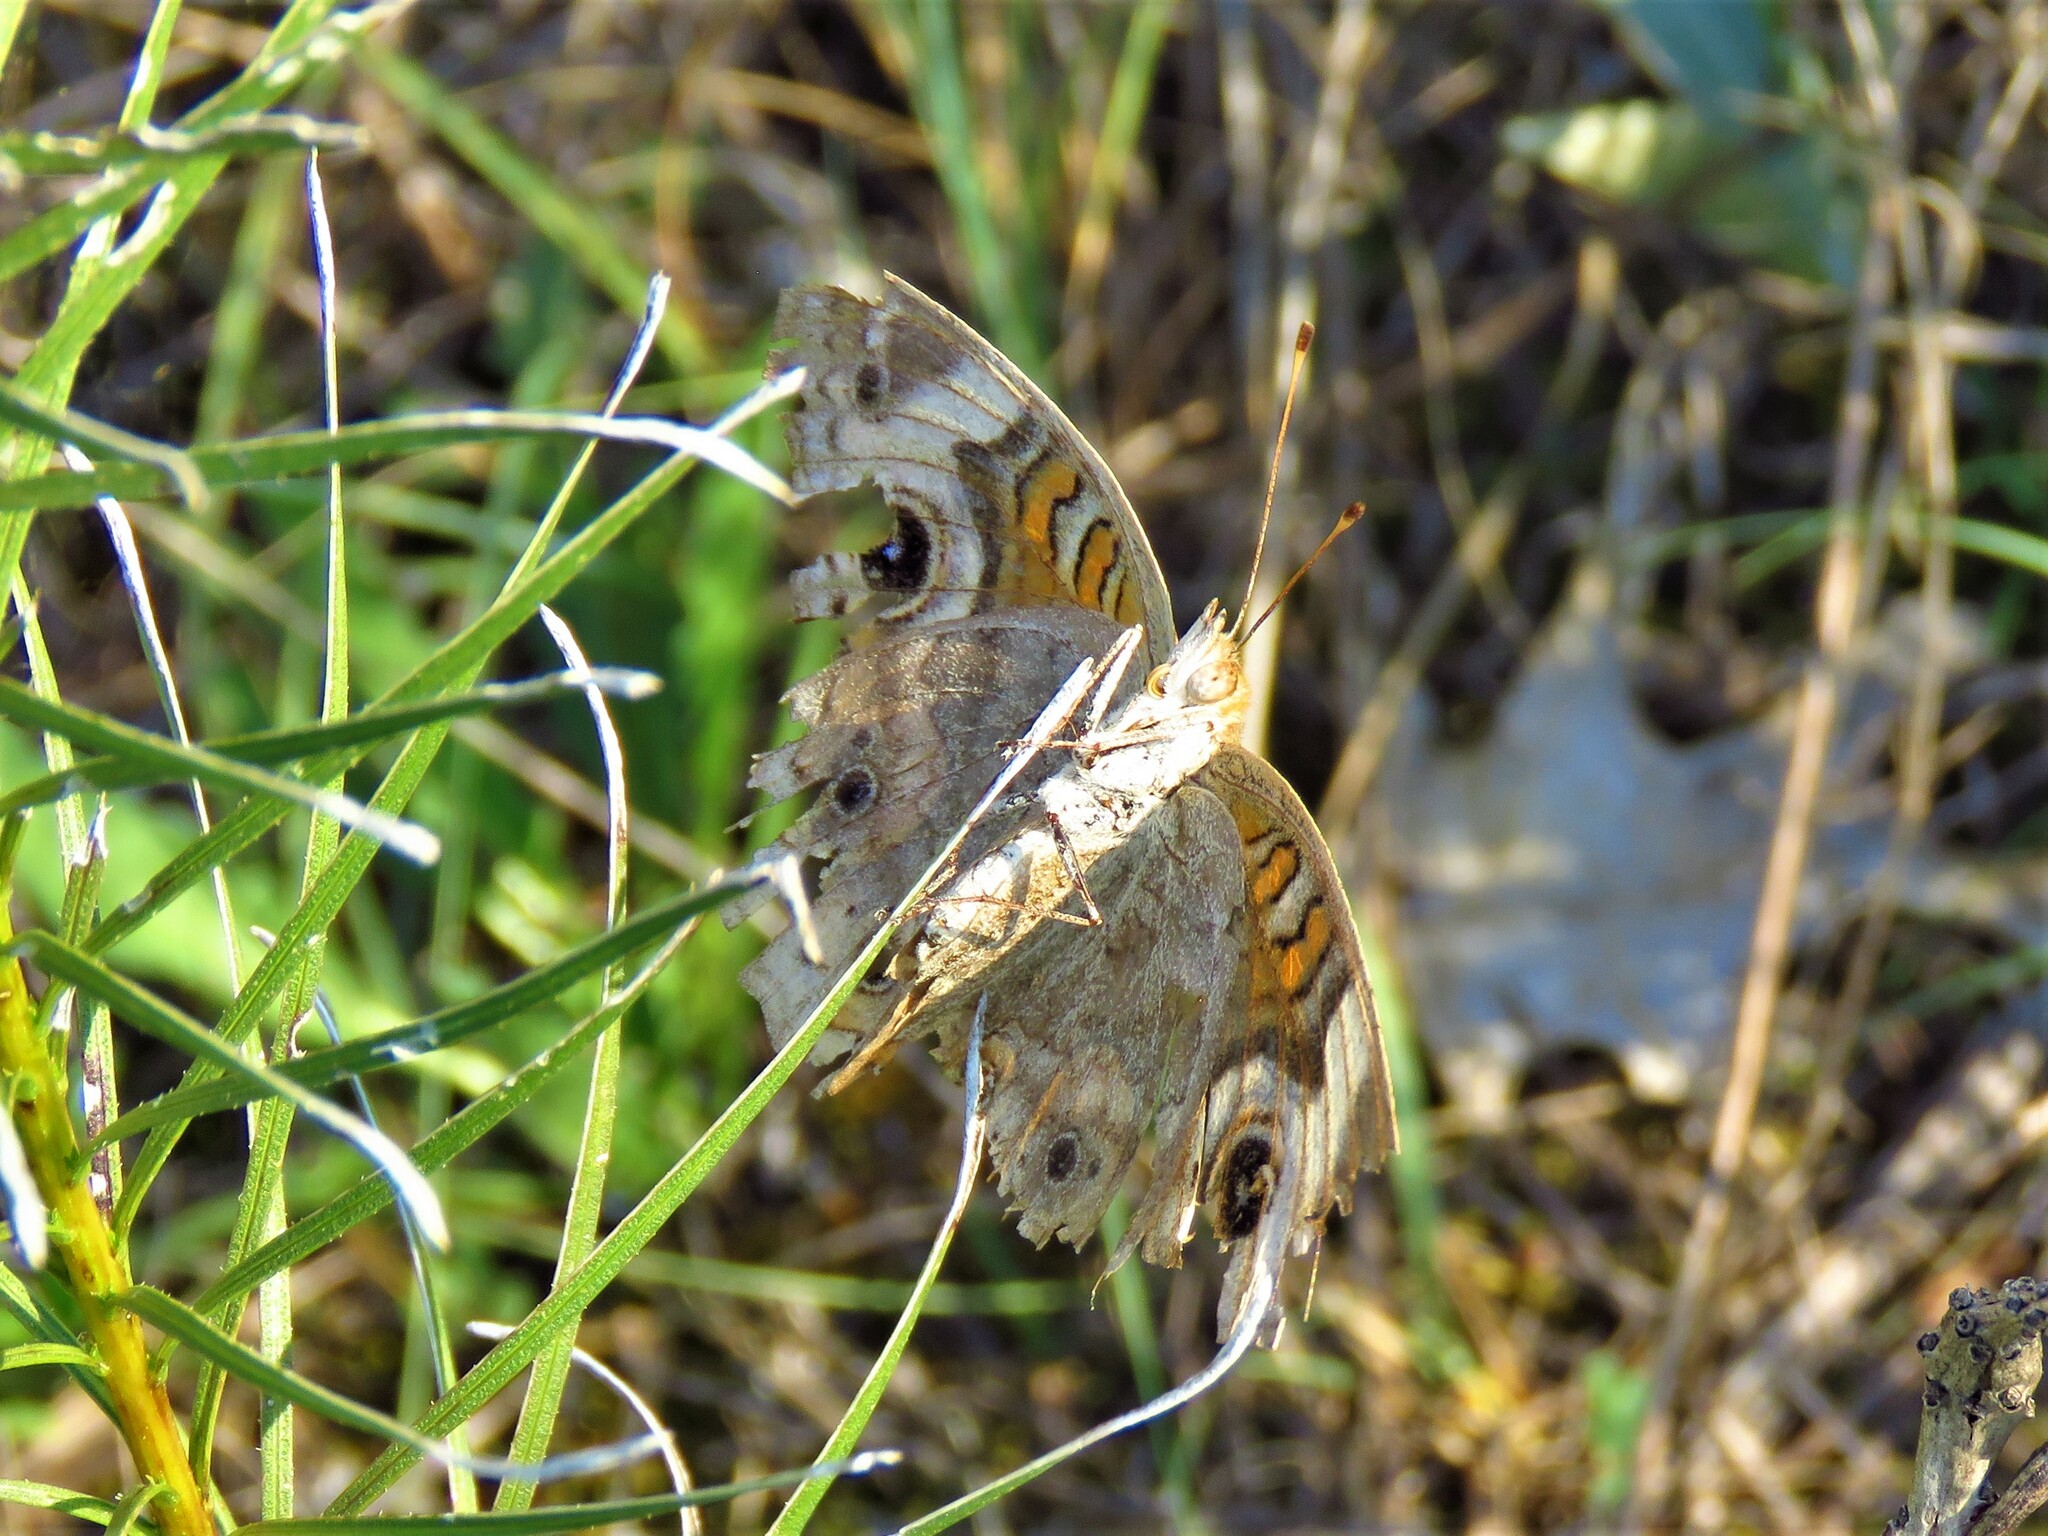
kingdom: Animalia
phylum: Arthropoda
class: Insecta
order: Lepidoptera
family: Nymphalidae
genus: Junonia
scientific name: Junonia coenia
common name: Common buckeye
